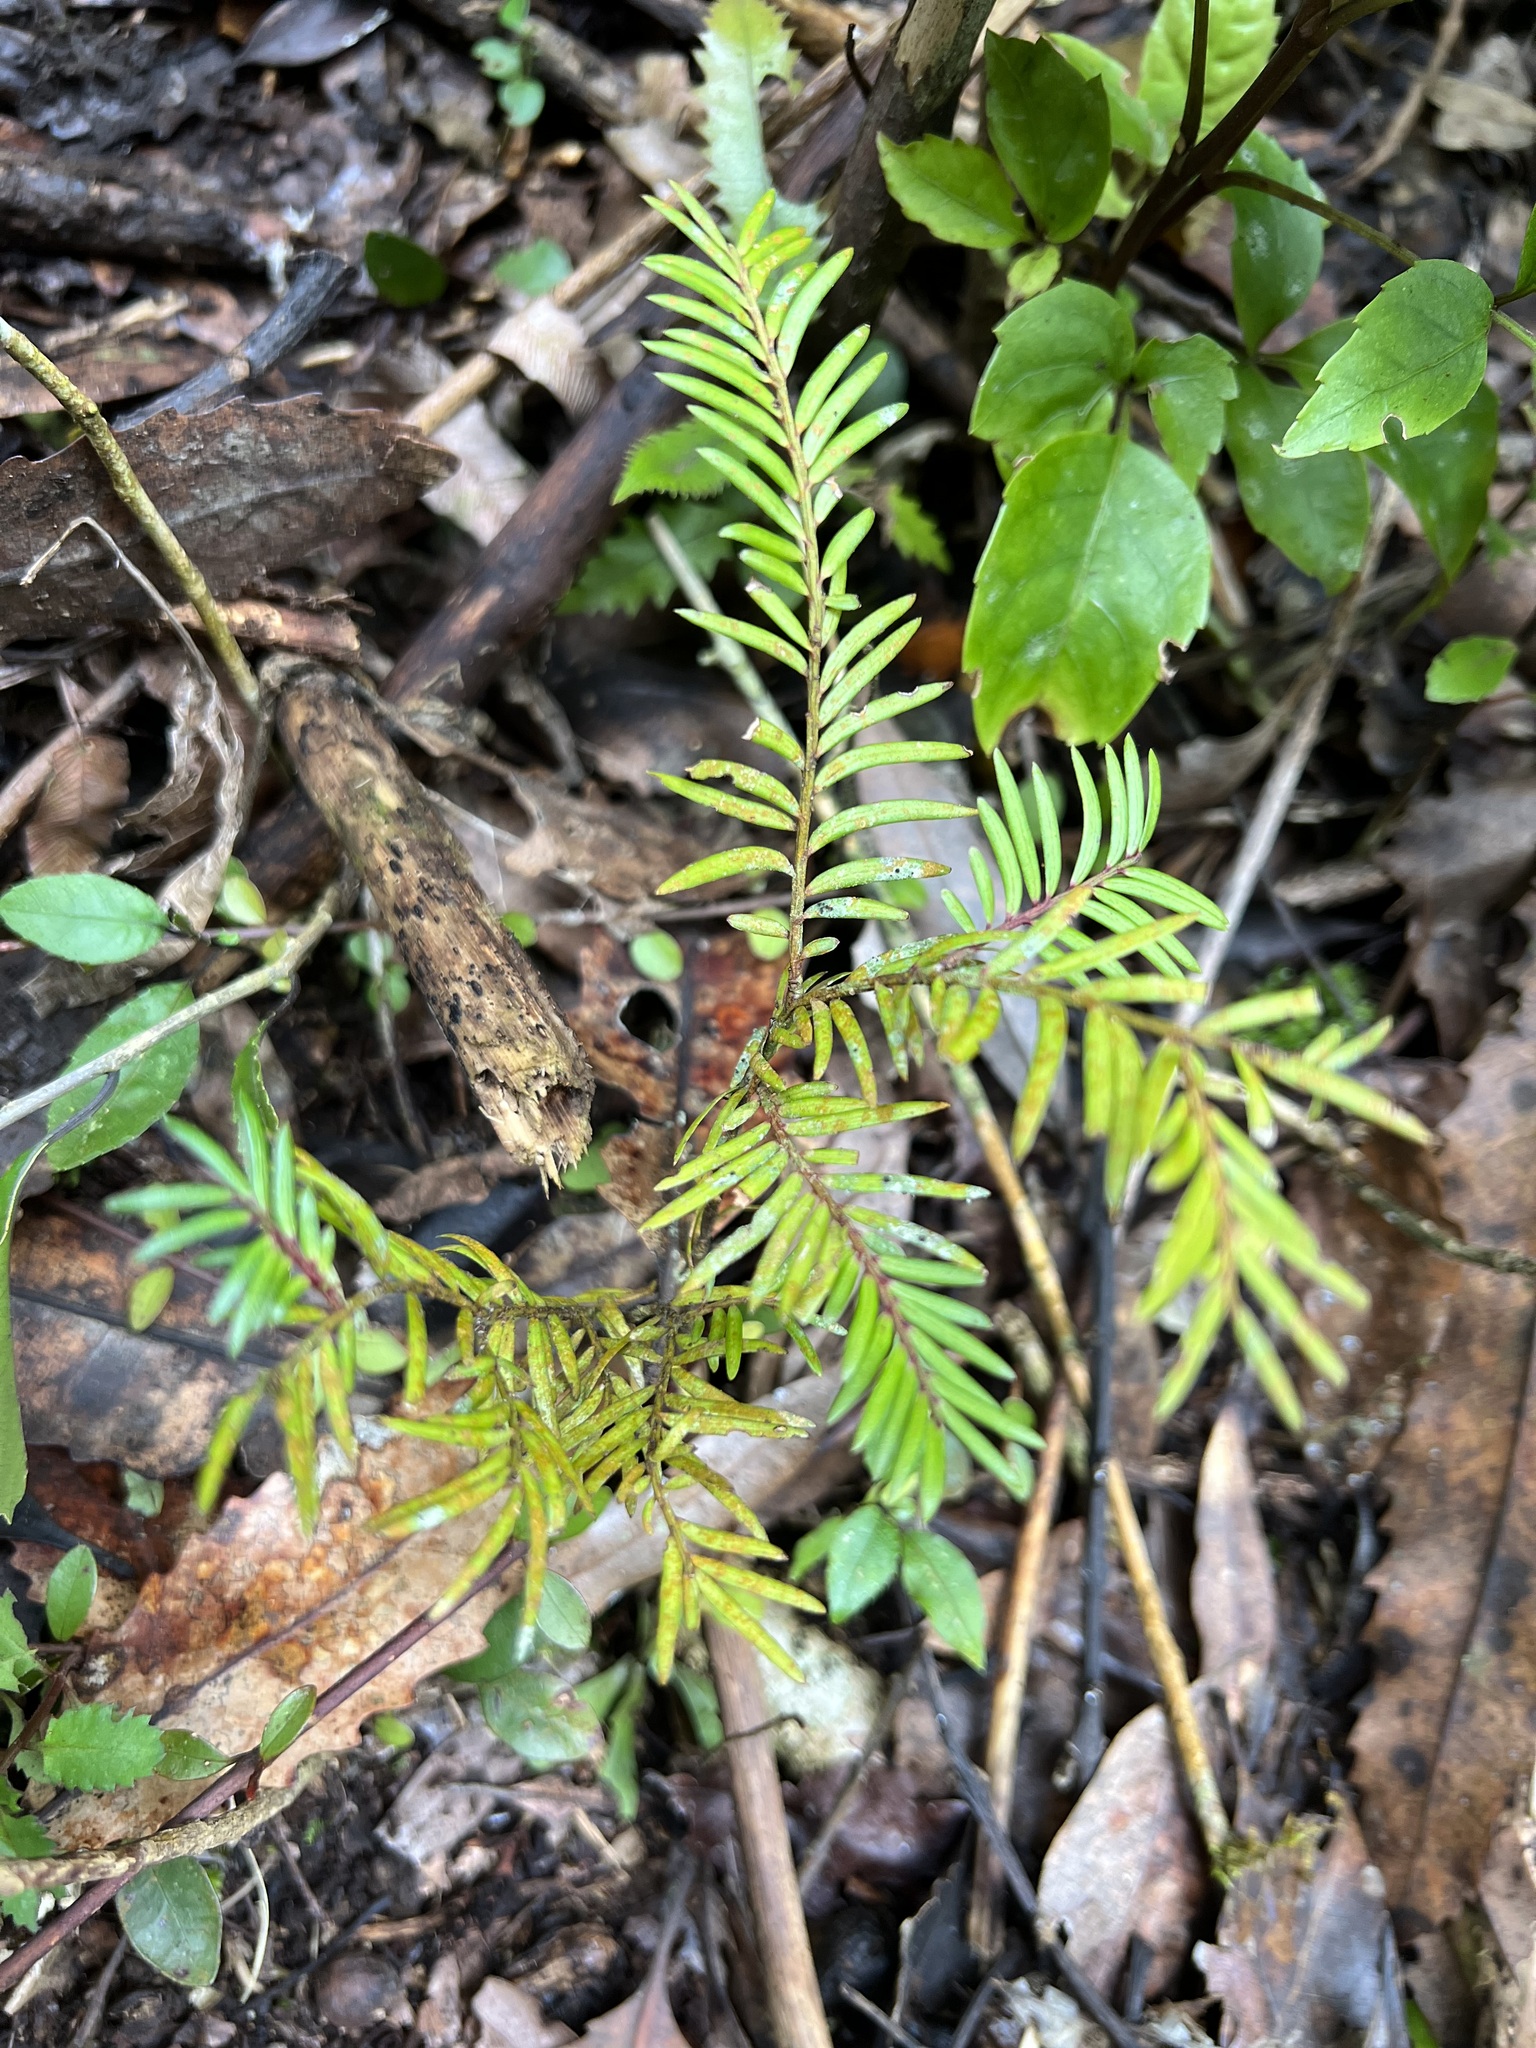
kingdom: Plantae
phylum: Tracheophyta
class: Pinopsida
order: Pinales
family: Podocarpaceae
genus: Prumnopitys
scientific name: Prumnopitys ferruginea
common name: Brown pine
